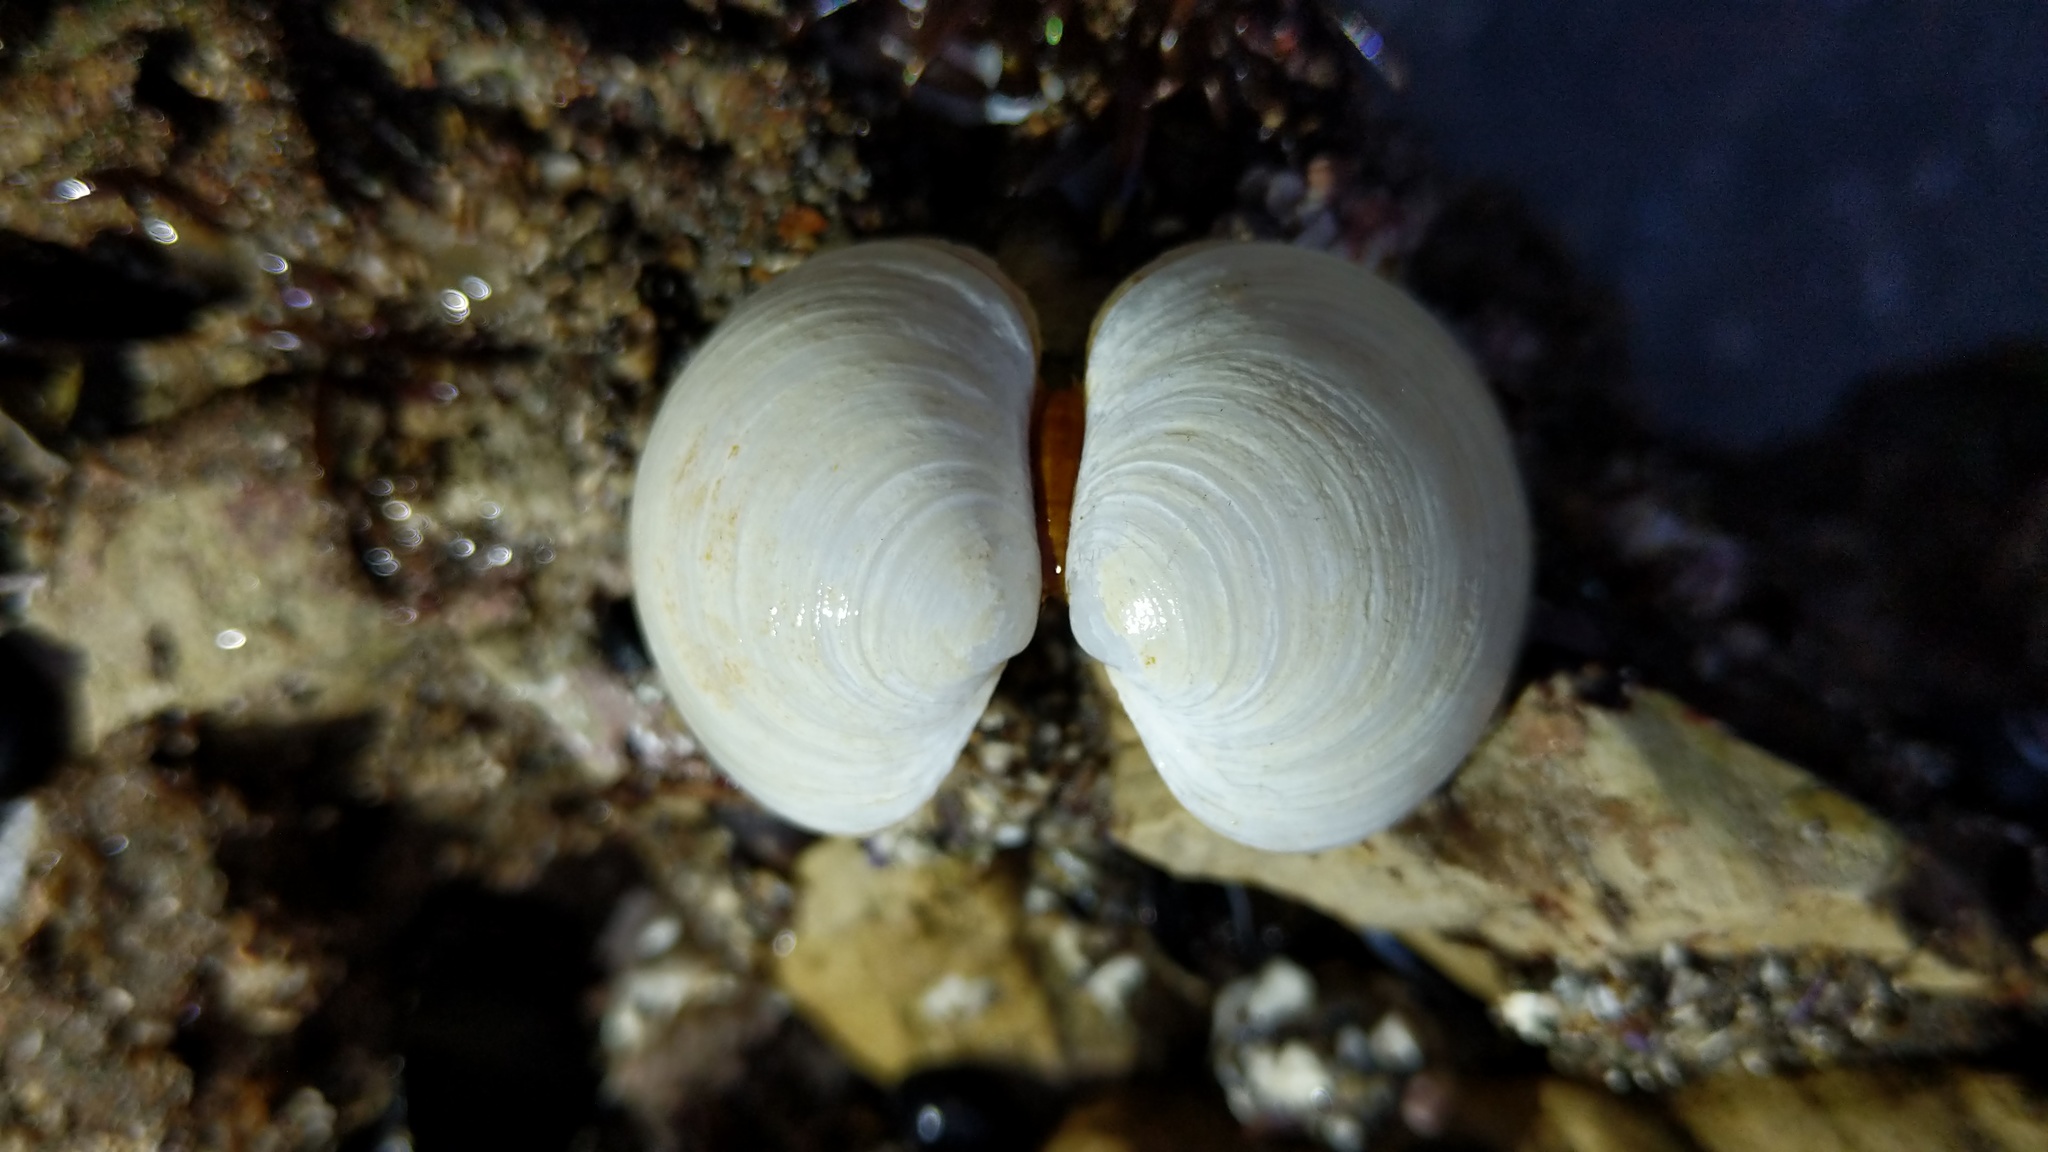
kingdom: Animalia
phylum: Mollusca
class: Bivalvia
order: Venerida
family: Ungulinidae
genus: Zemysina
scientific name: Zemysina orbella
